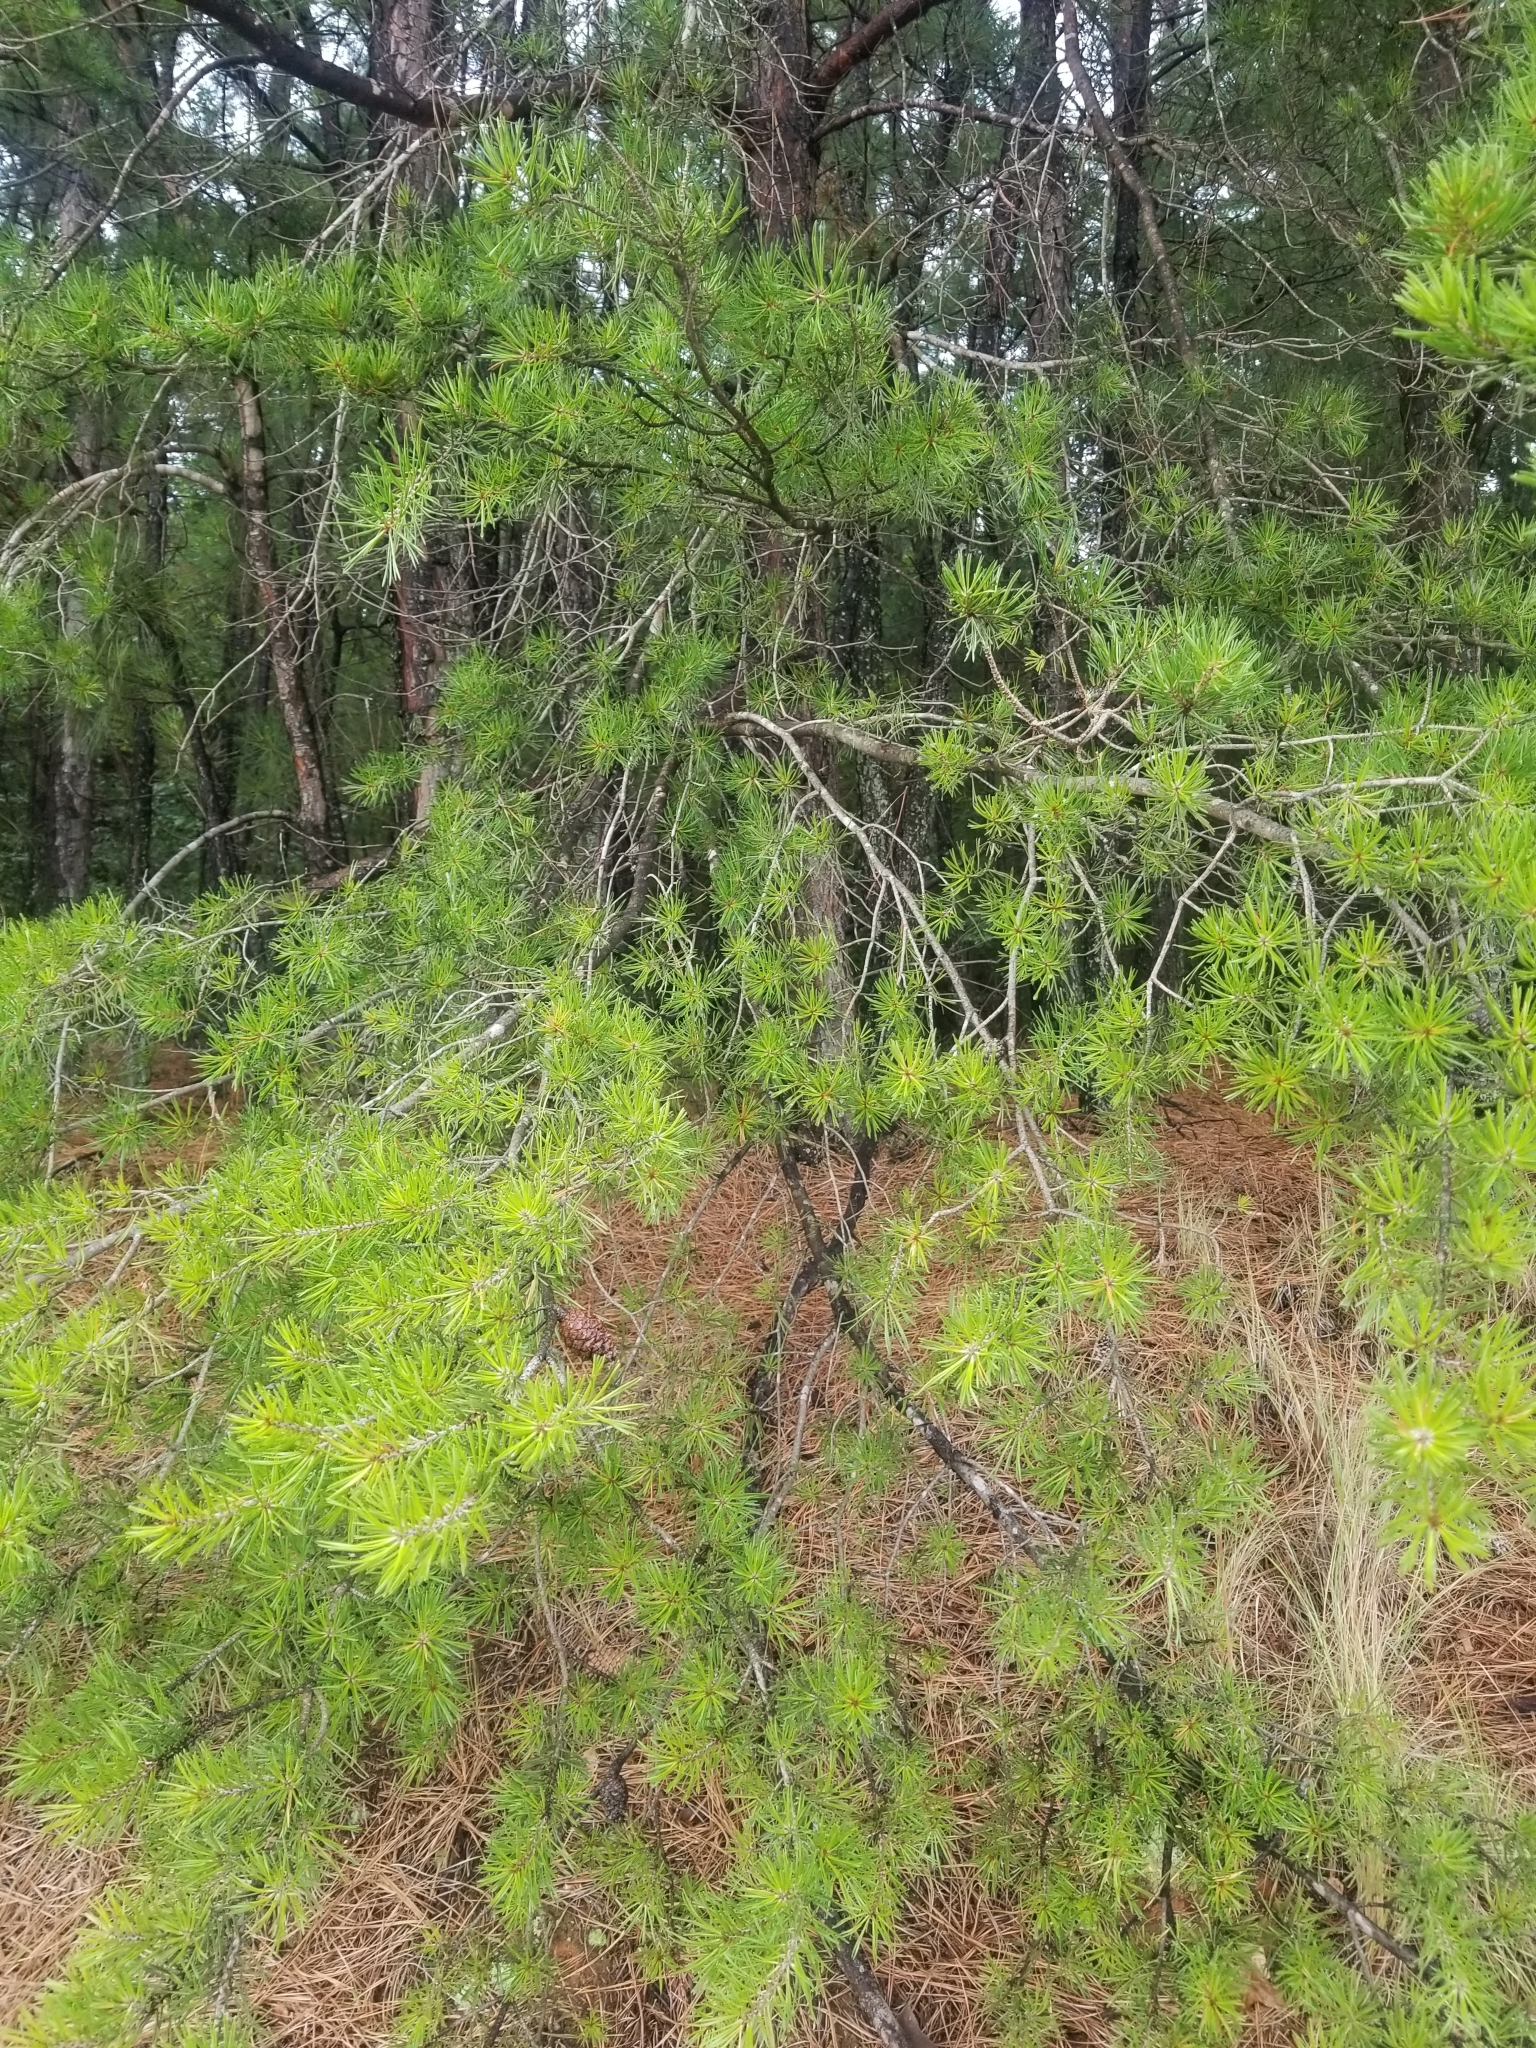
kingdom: Plantae
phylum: Tracheophyta
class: Pinopsida
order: Pinales
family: Pinaceae
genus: Pinus
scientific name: Pinus virginiana
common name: Scrub pine
